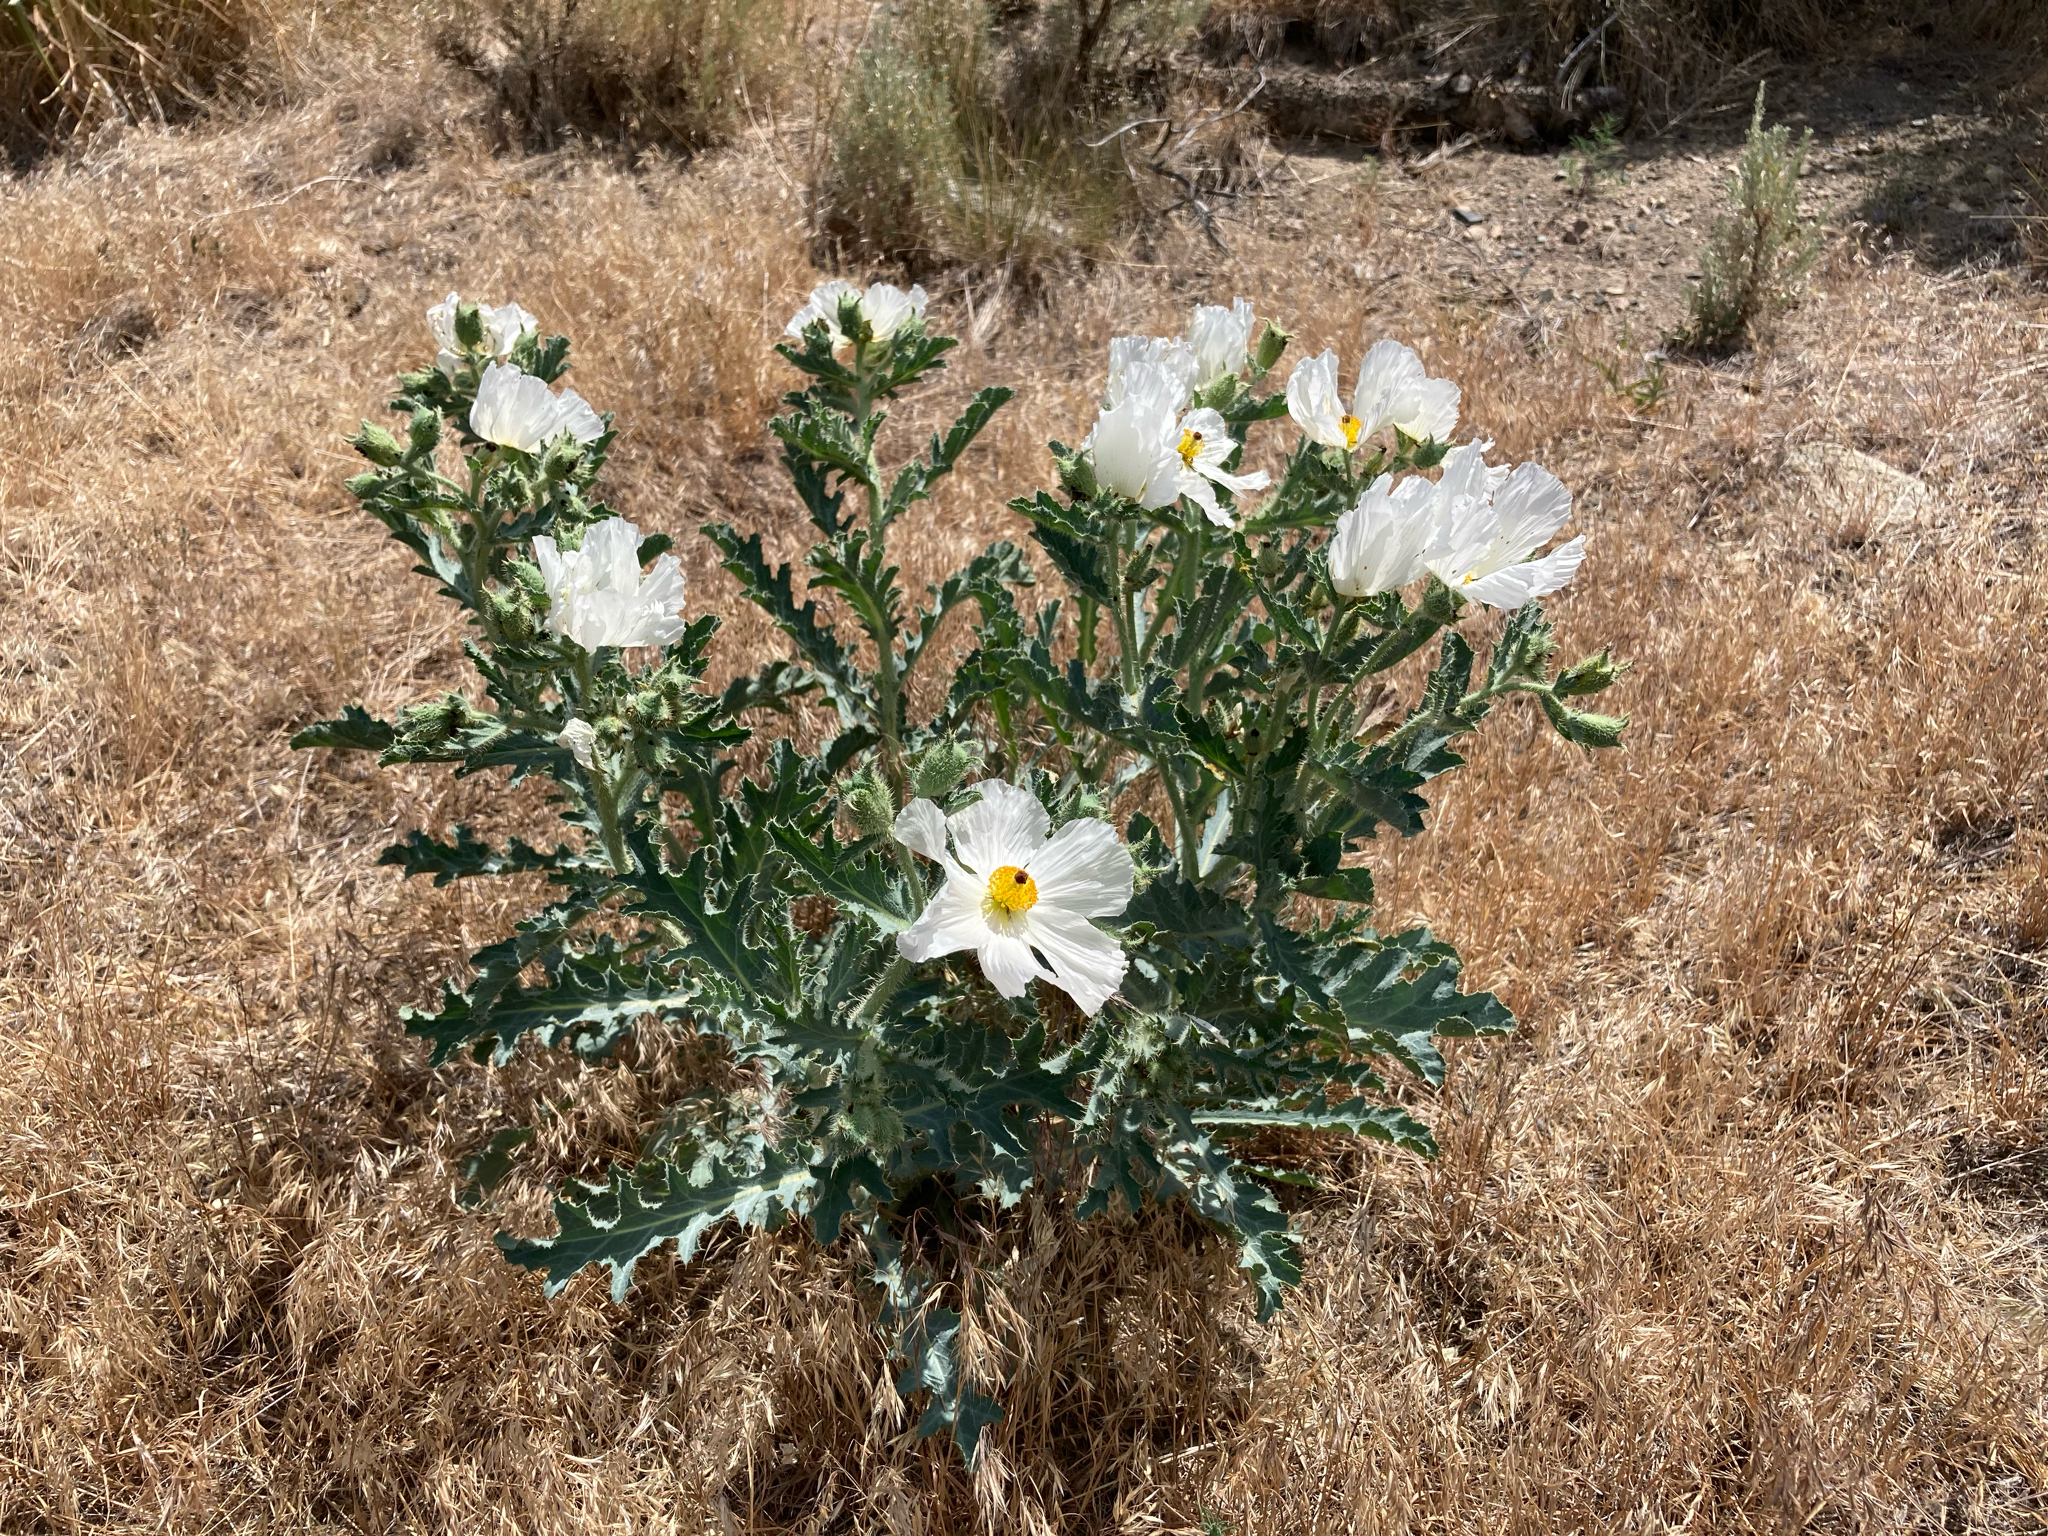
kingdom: Plantae
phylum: Tracheophyta
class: Magnoliopsida
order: Ranunculales
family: Papaveraceae
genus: Argemone
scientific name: Argemone munita
